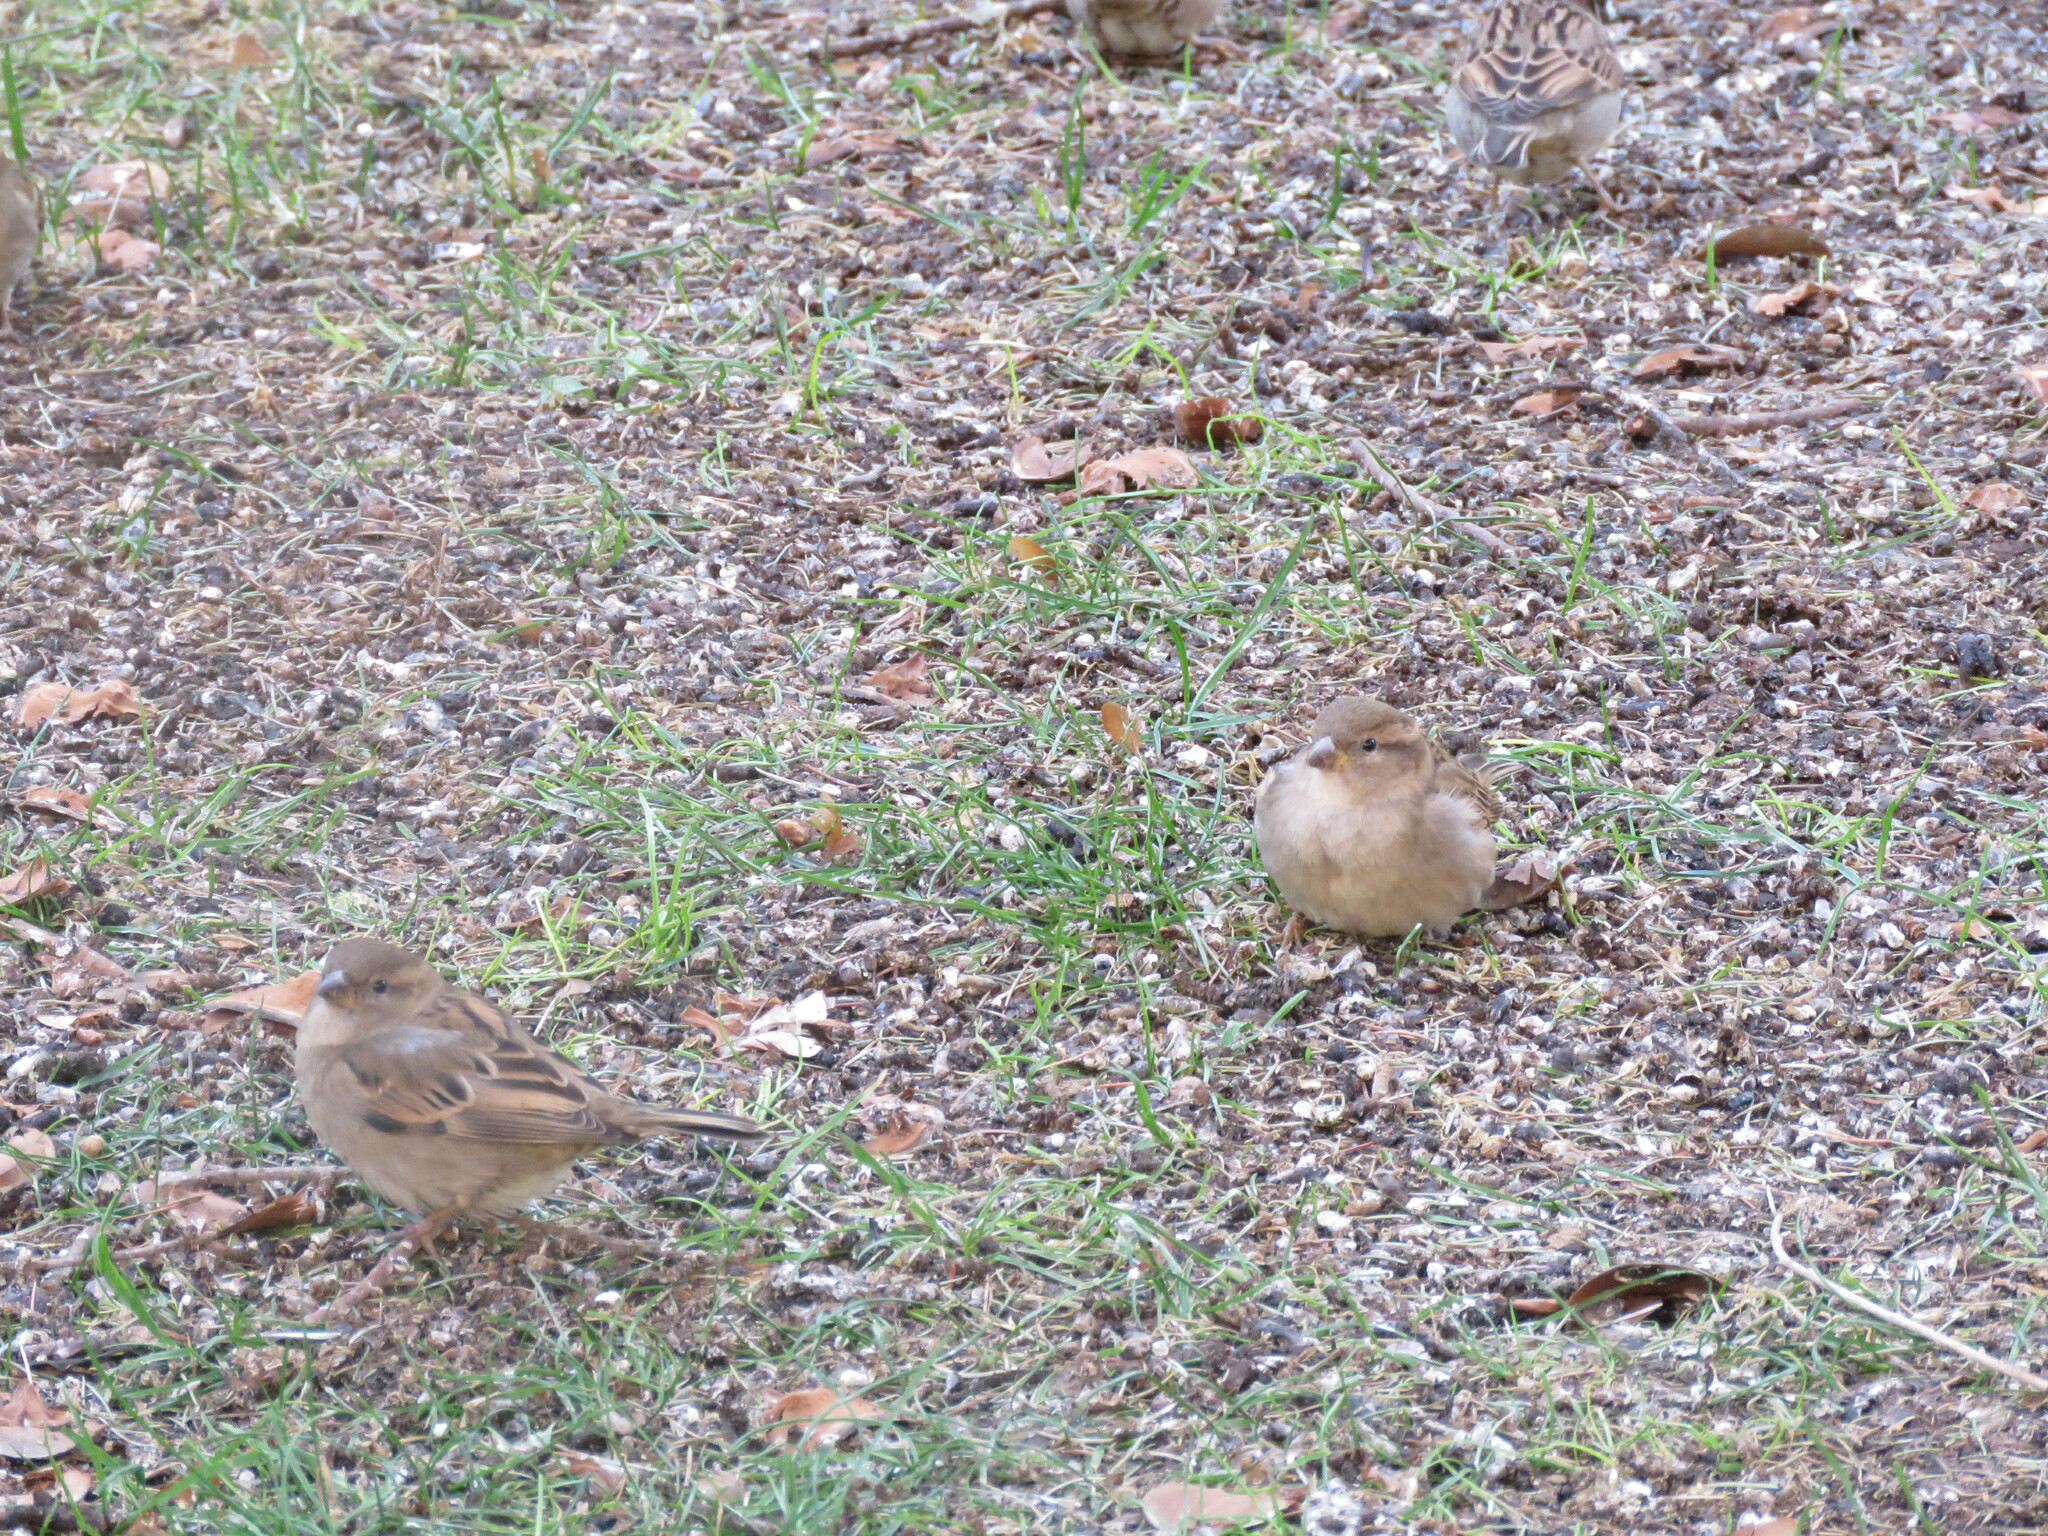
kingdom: Animalia
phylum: Chordata
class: Aves
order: Passeriformes
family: Passeridae
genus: Passer
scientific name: Passer domesticus
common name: House sparrow
